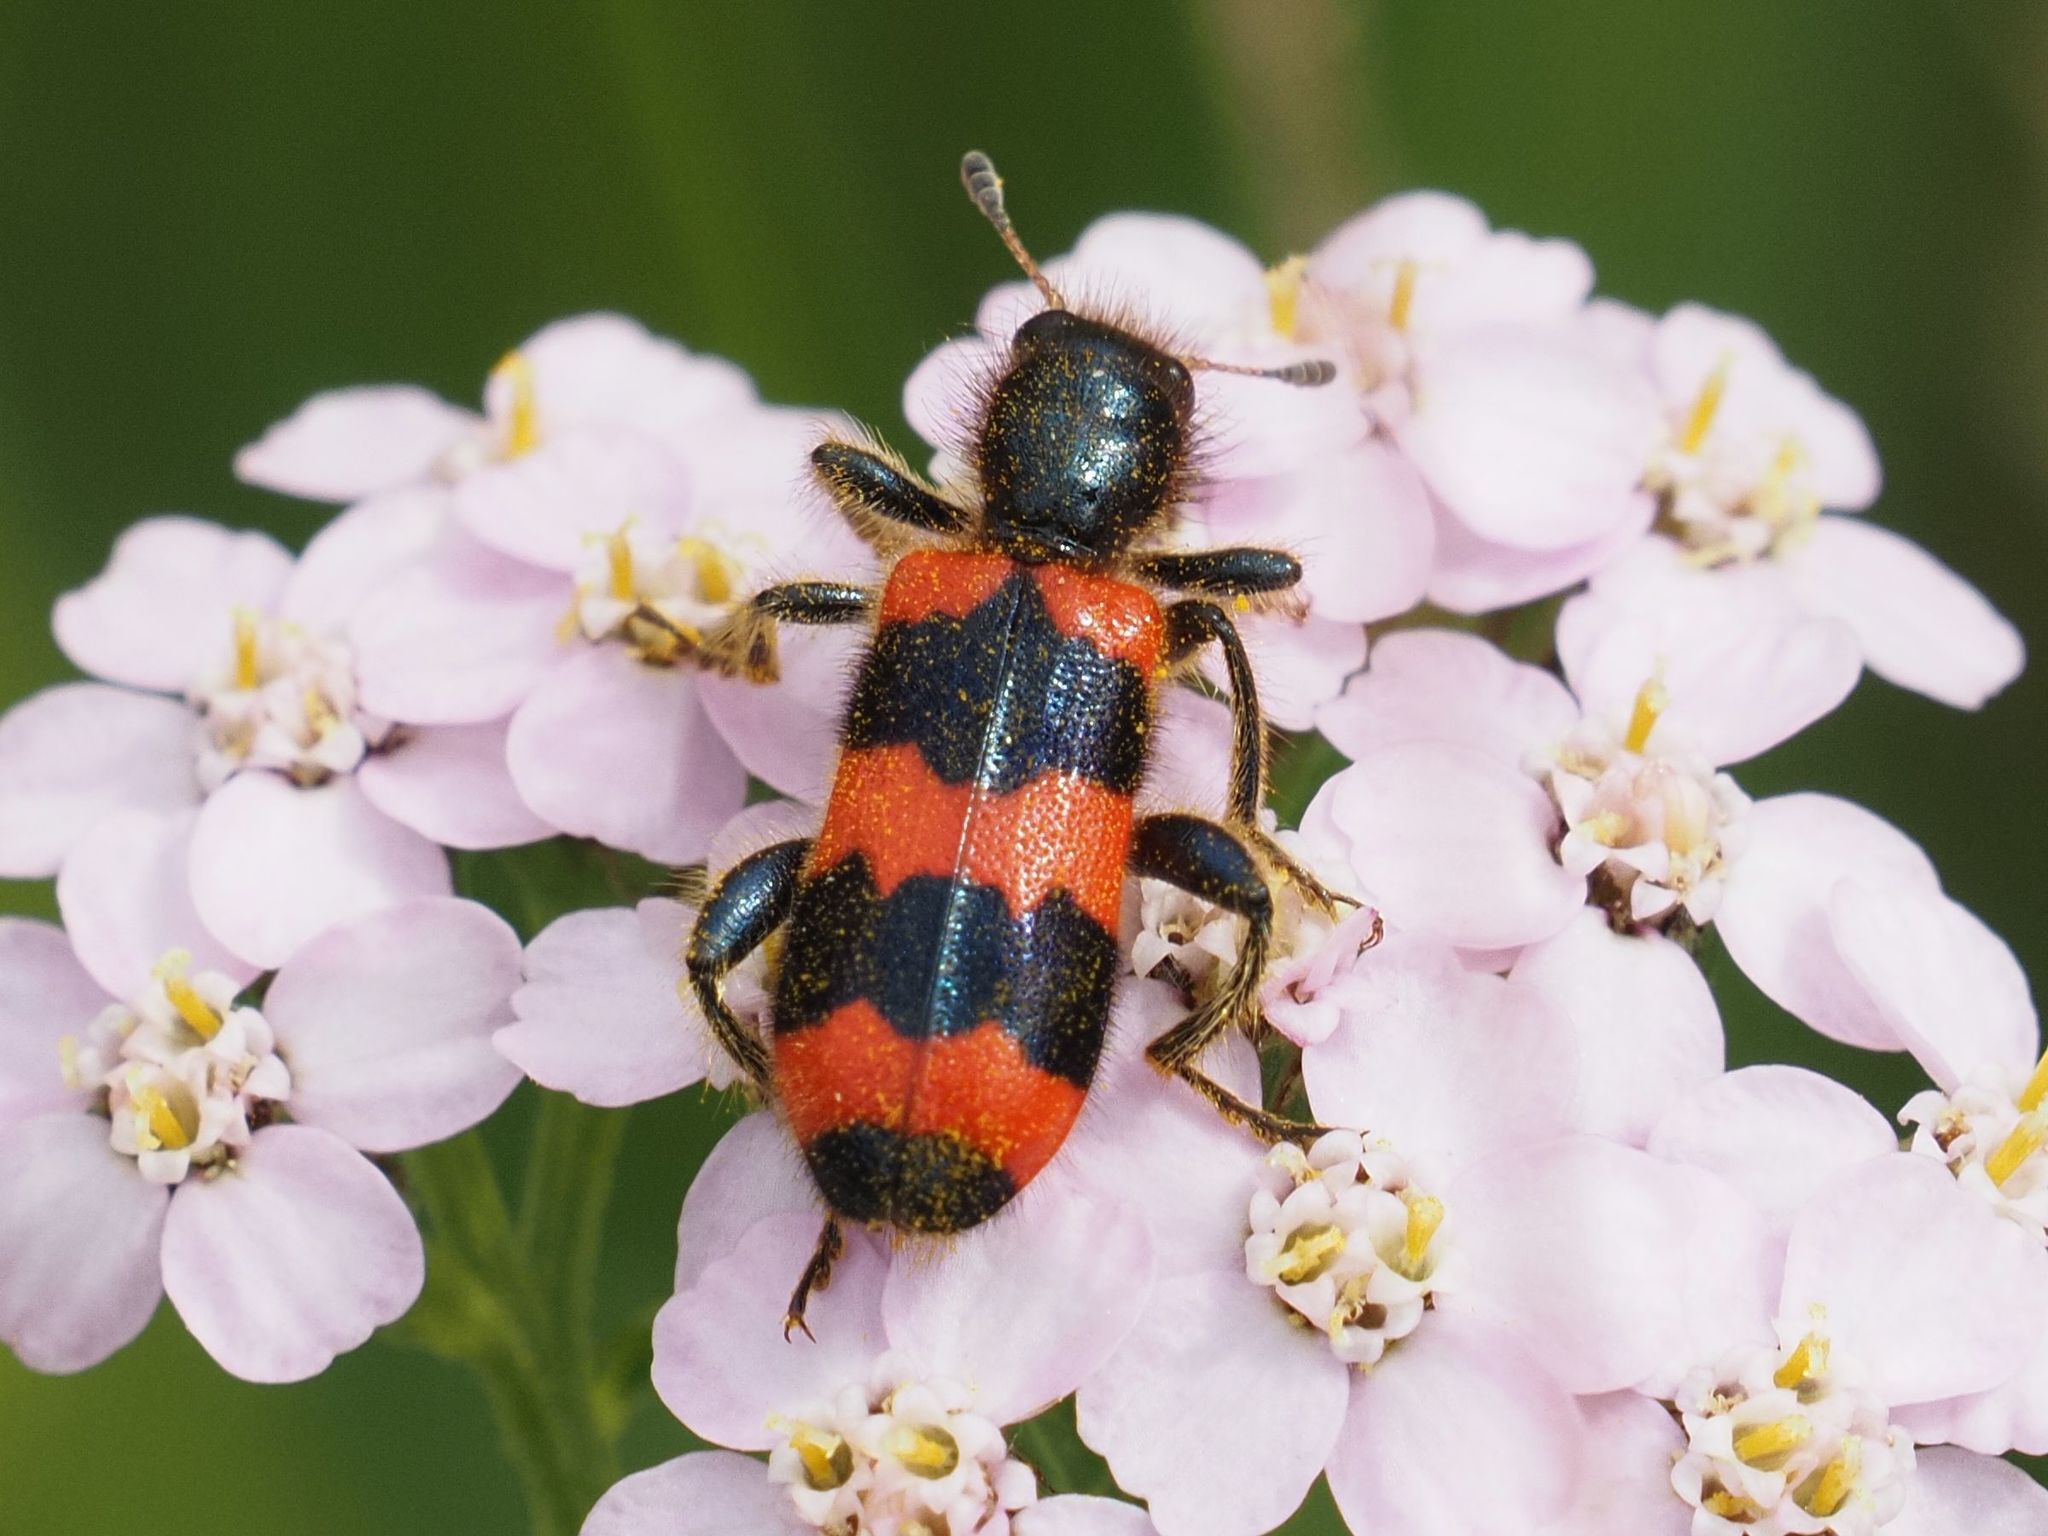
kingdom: Animalia
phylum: Arthropoda
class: Insecta
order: Coleoptera
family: Cleridae
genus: Trichodes
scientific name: Trichodes apiarius
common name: Bee-eating beetle
